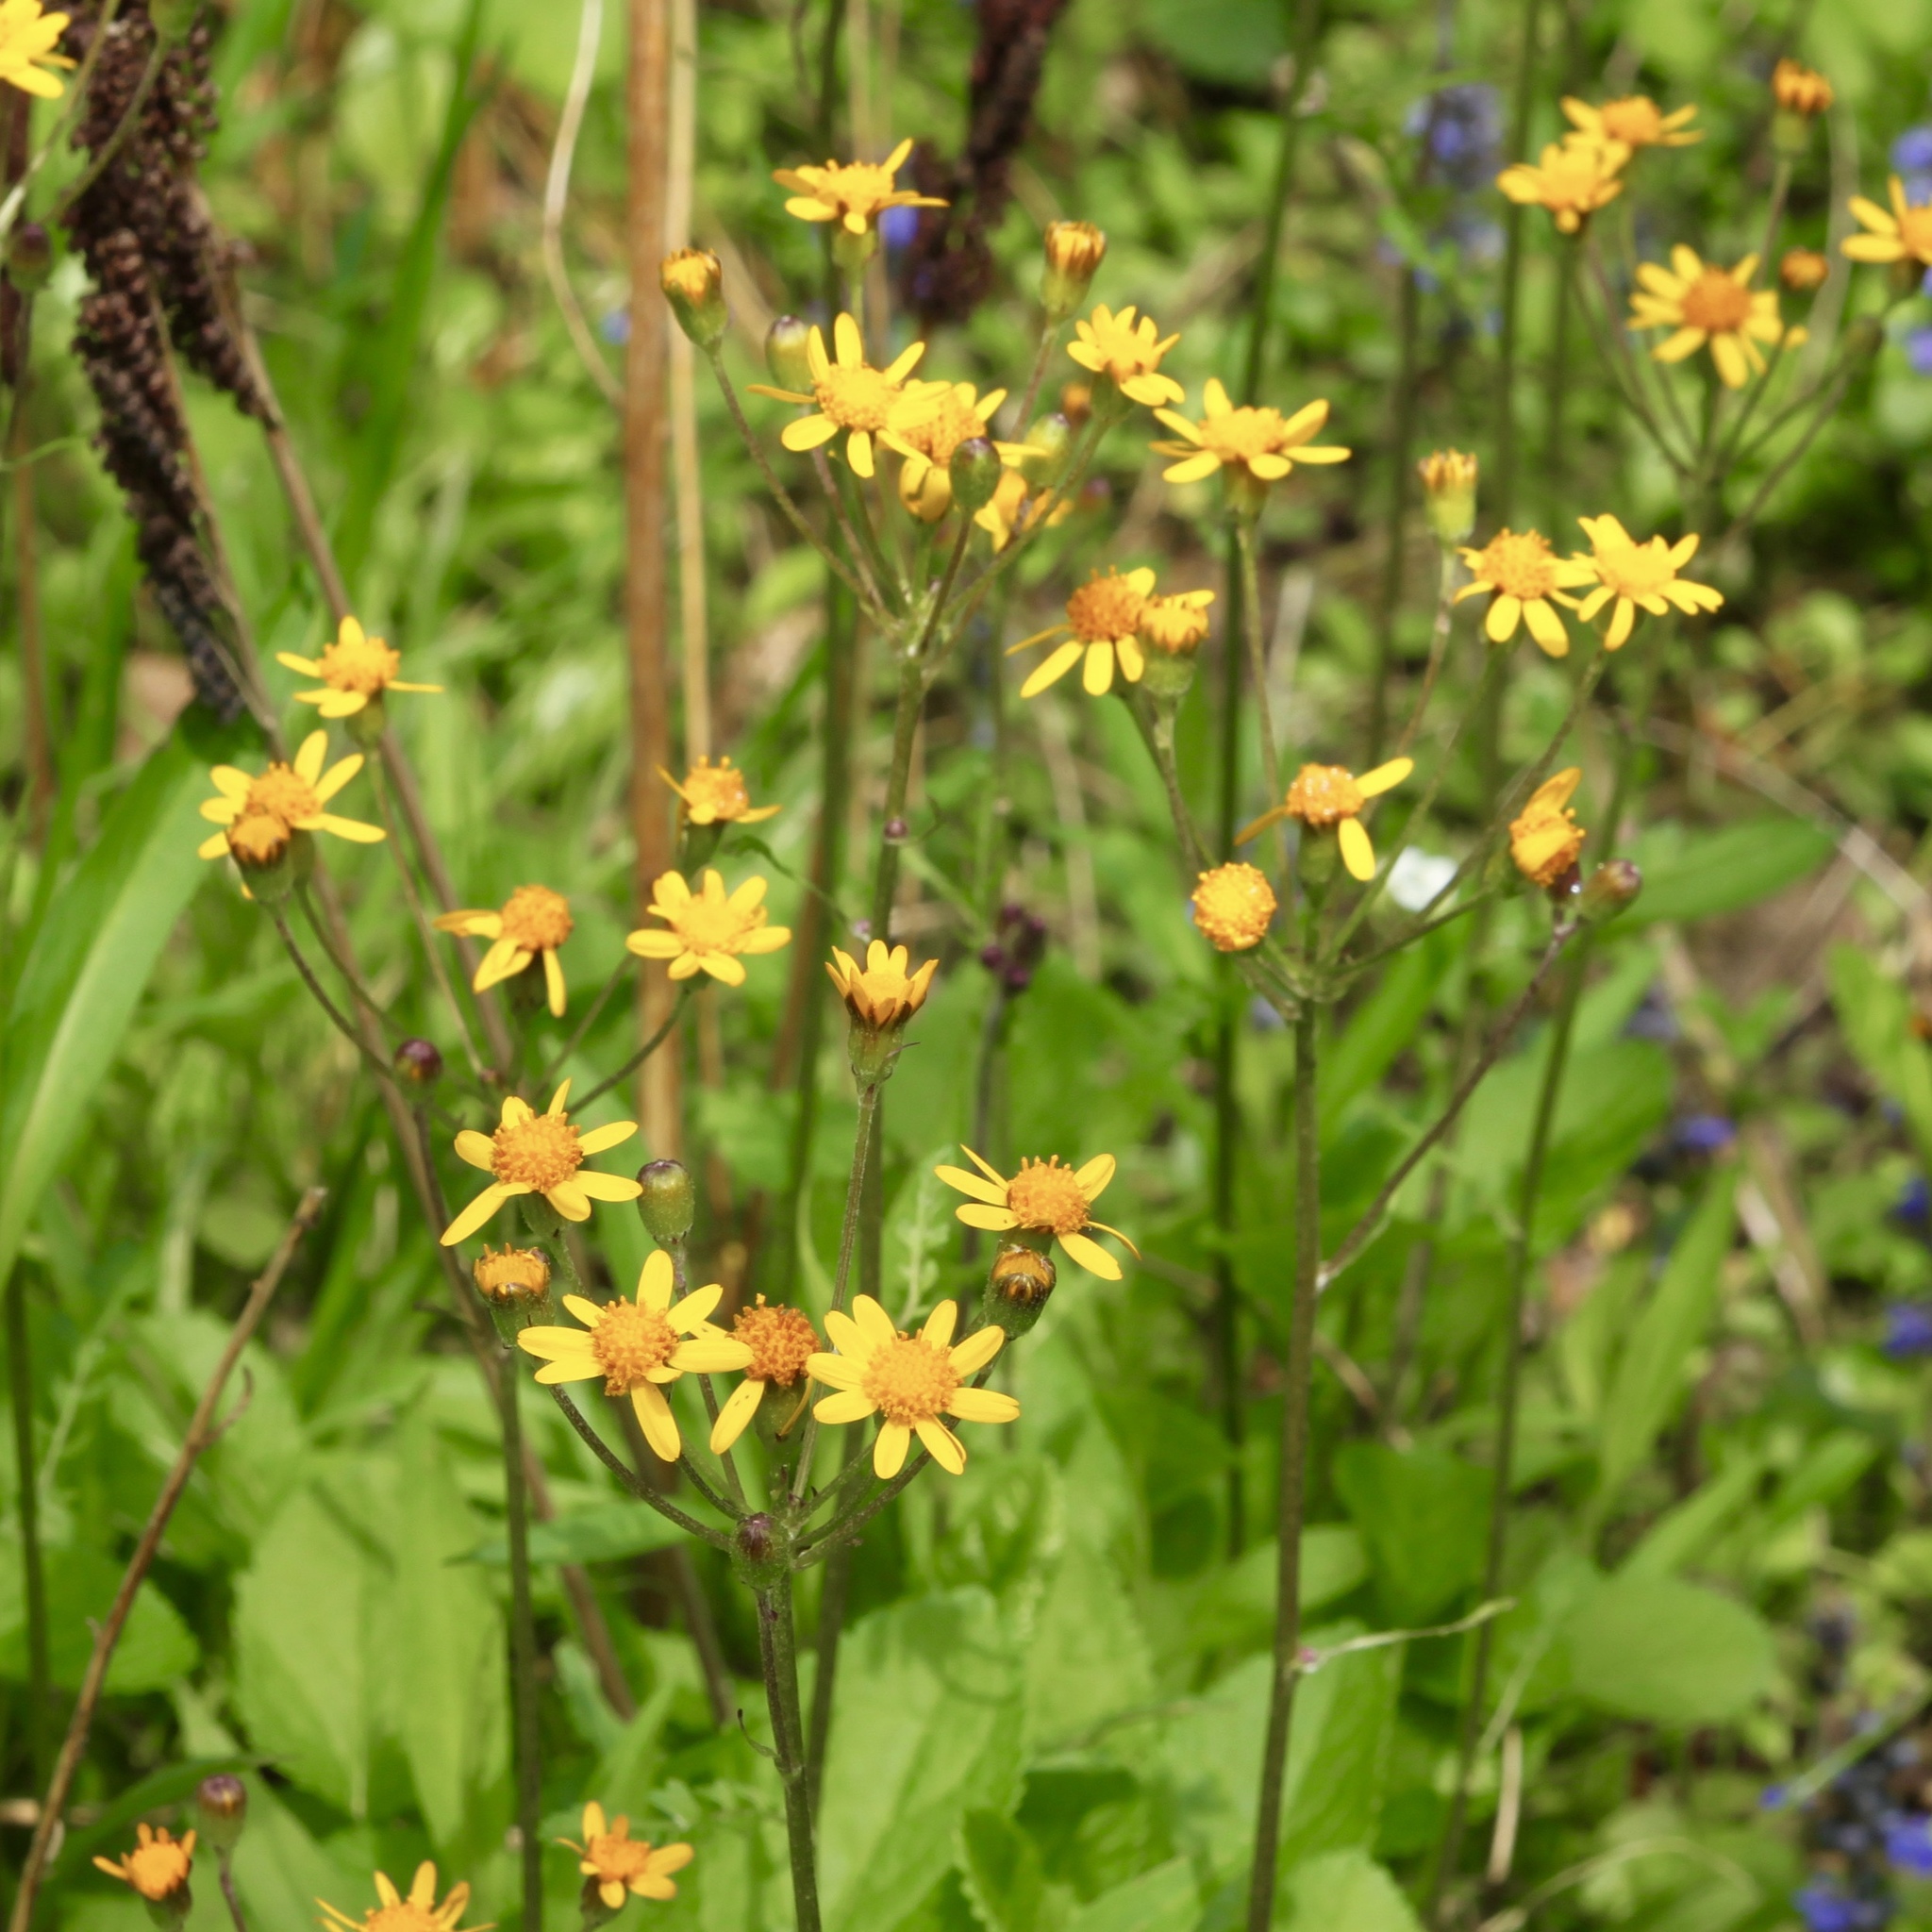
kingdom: Plantae
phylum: Tracheophyta
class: Magnoliopsida
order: Asterales
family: Asteraceae
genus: Packera
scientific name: Packera aurea
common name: Golden groundsel
